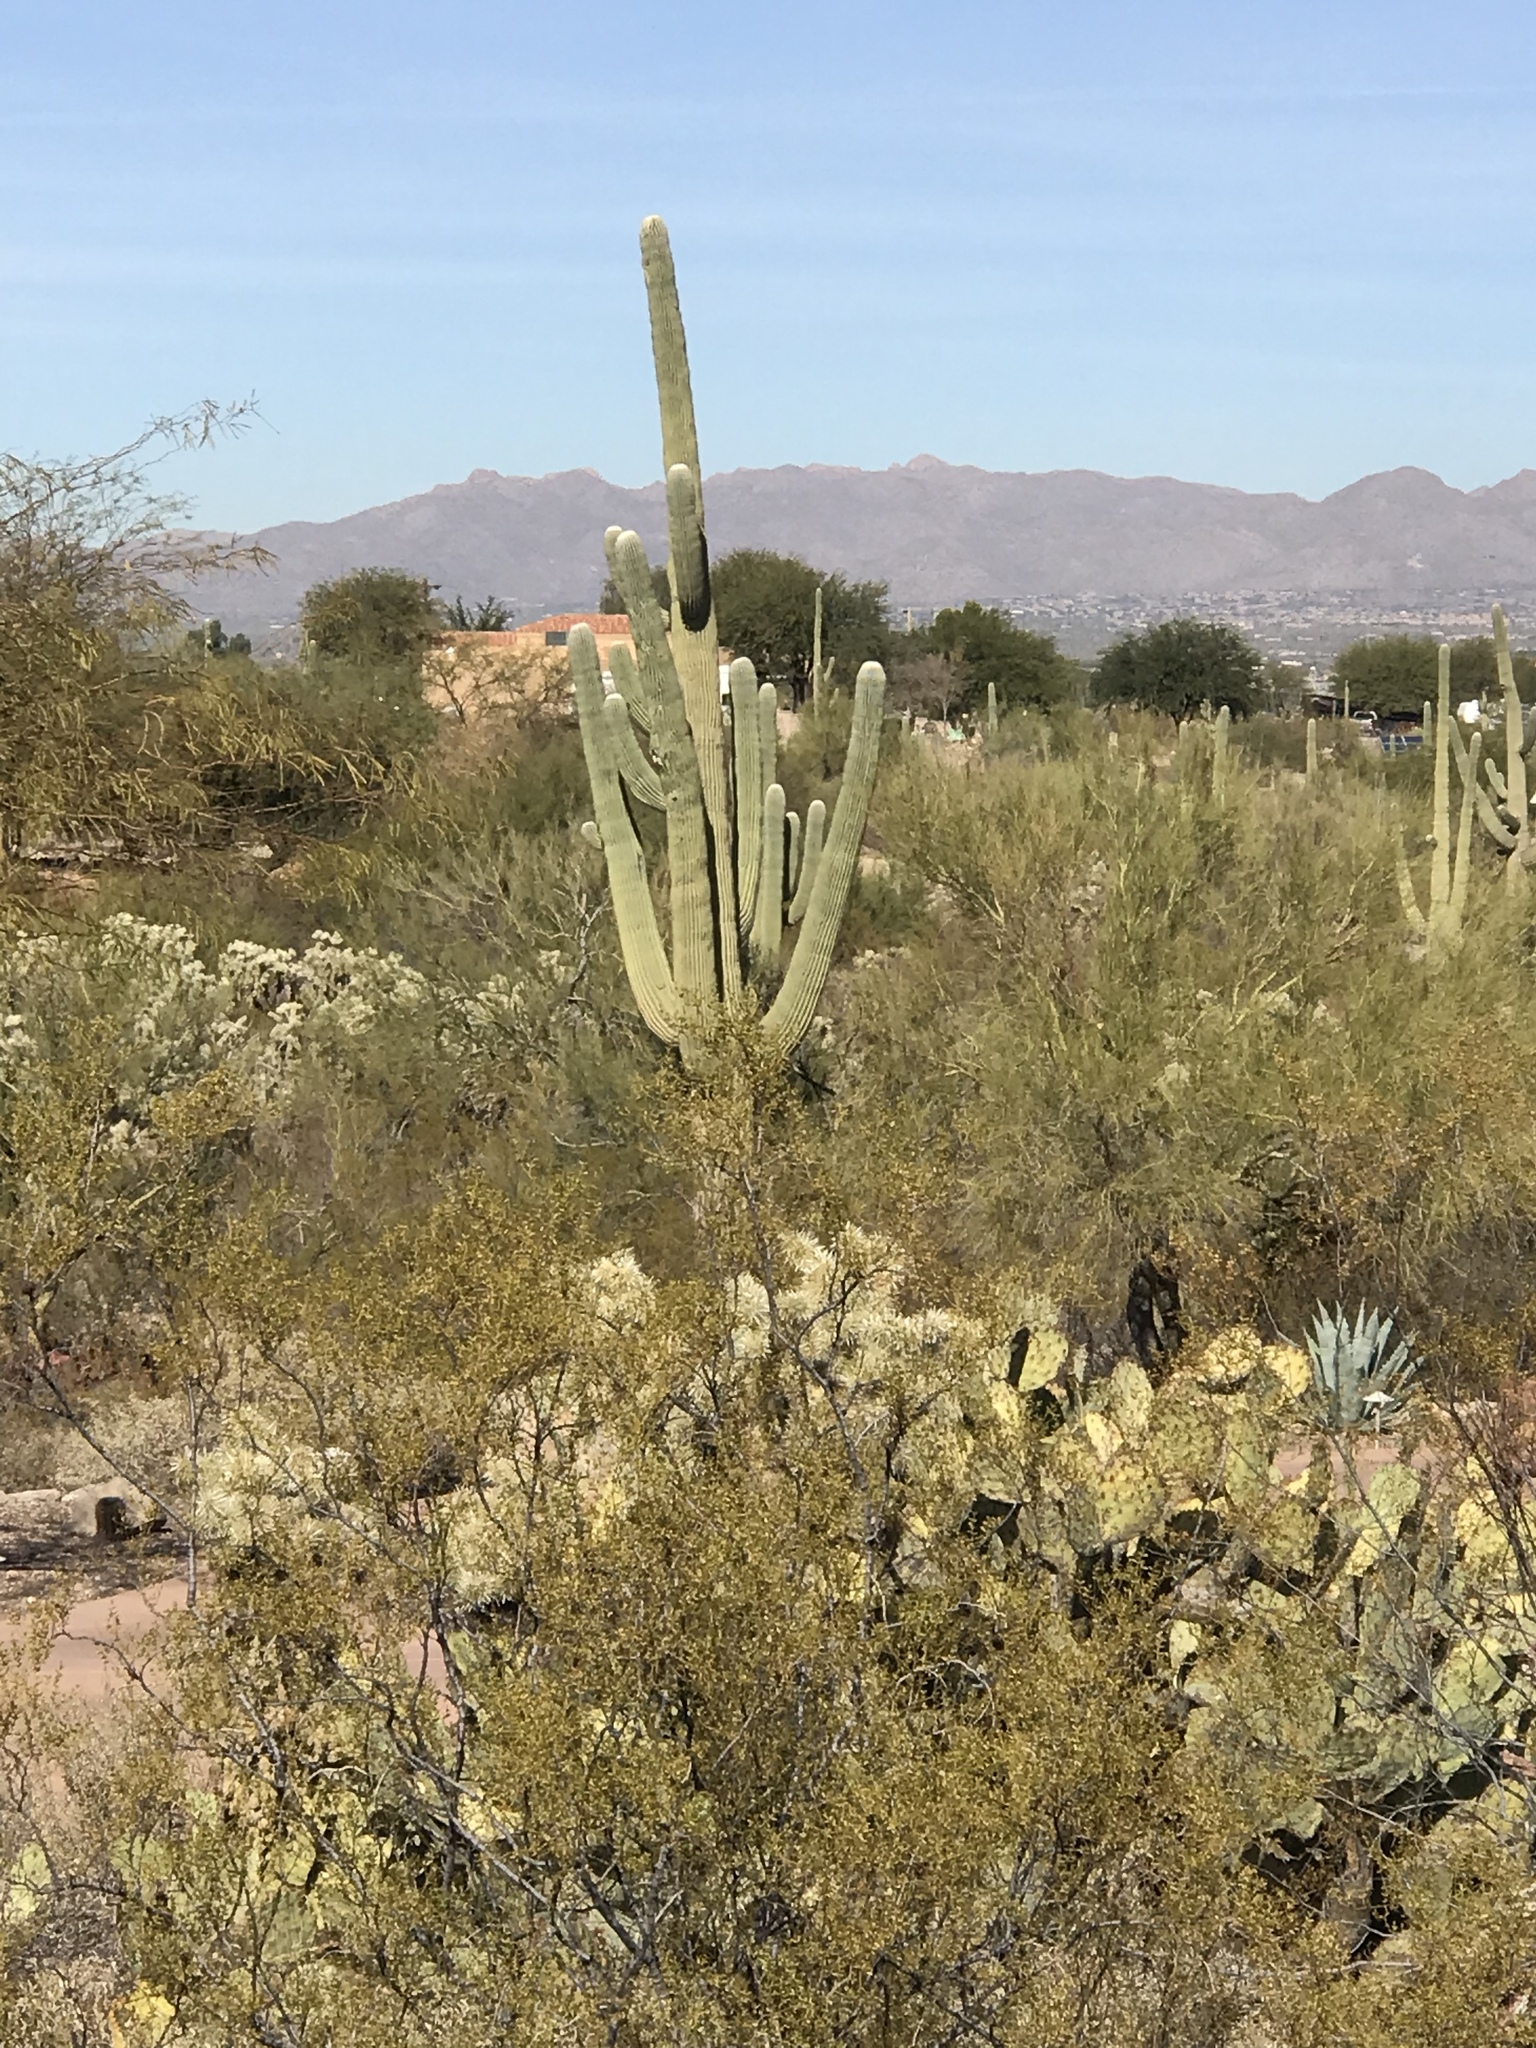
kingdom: Plantae
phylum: Tracheophyta
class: Magnoliopsida
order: Caryophyllales
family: Cactaceae
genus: Carnegiea
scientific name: Carnegiea gigantea
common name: Saguaro
